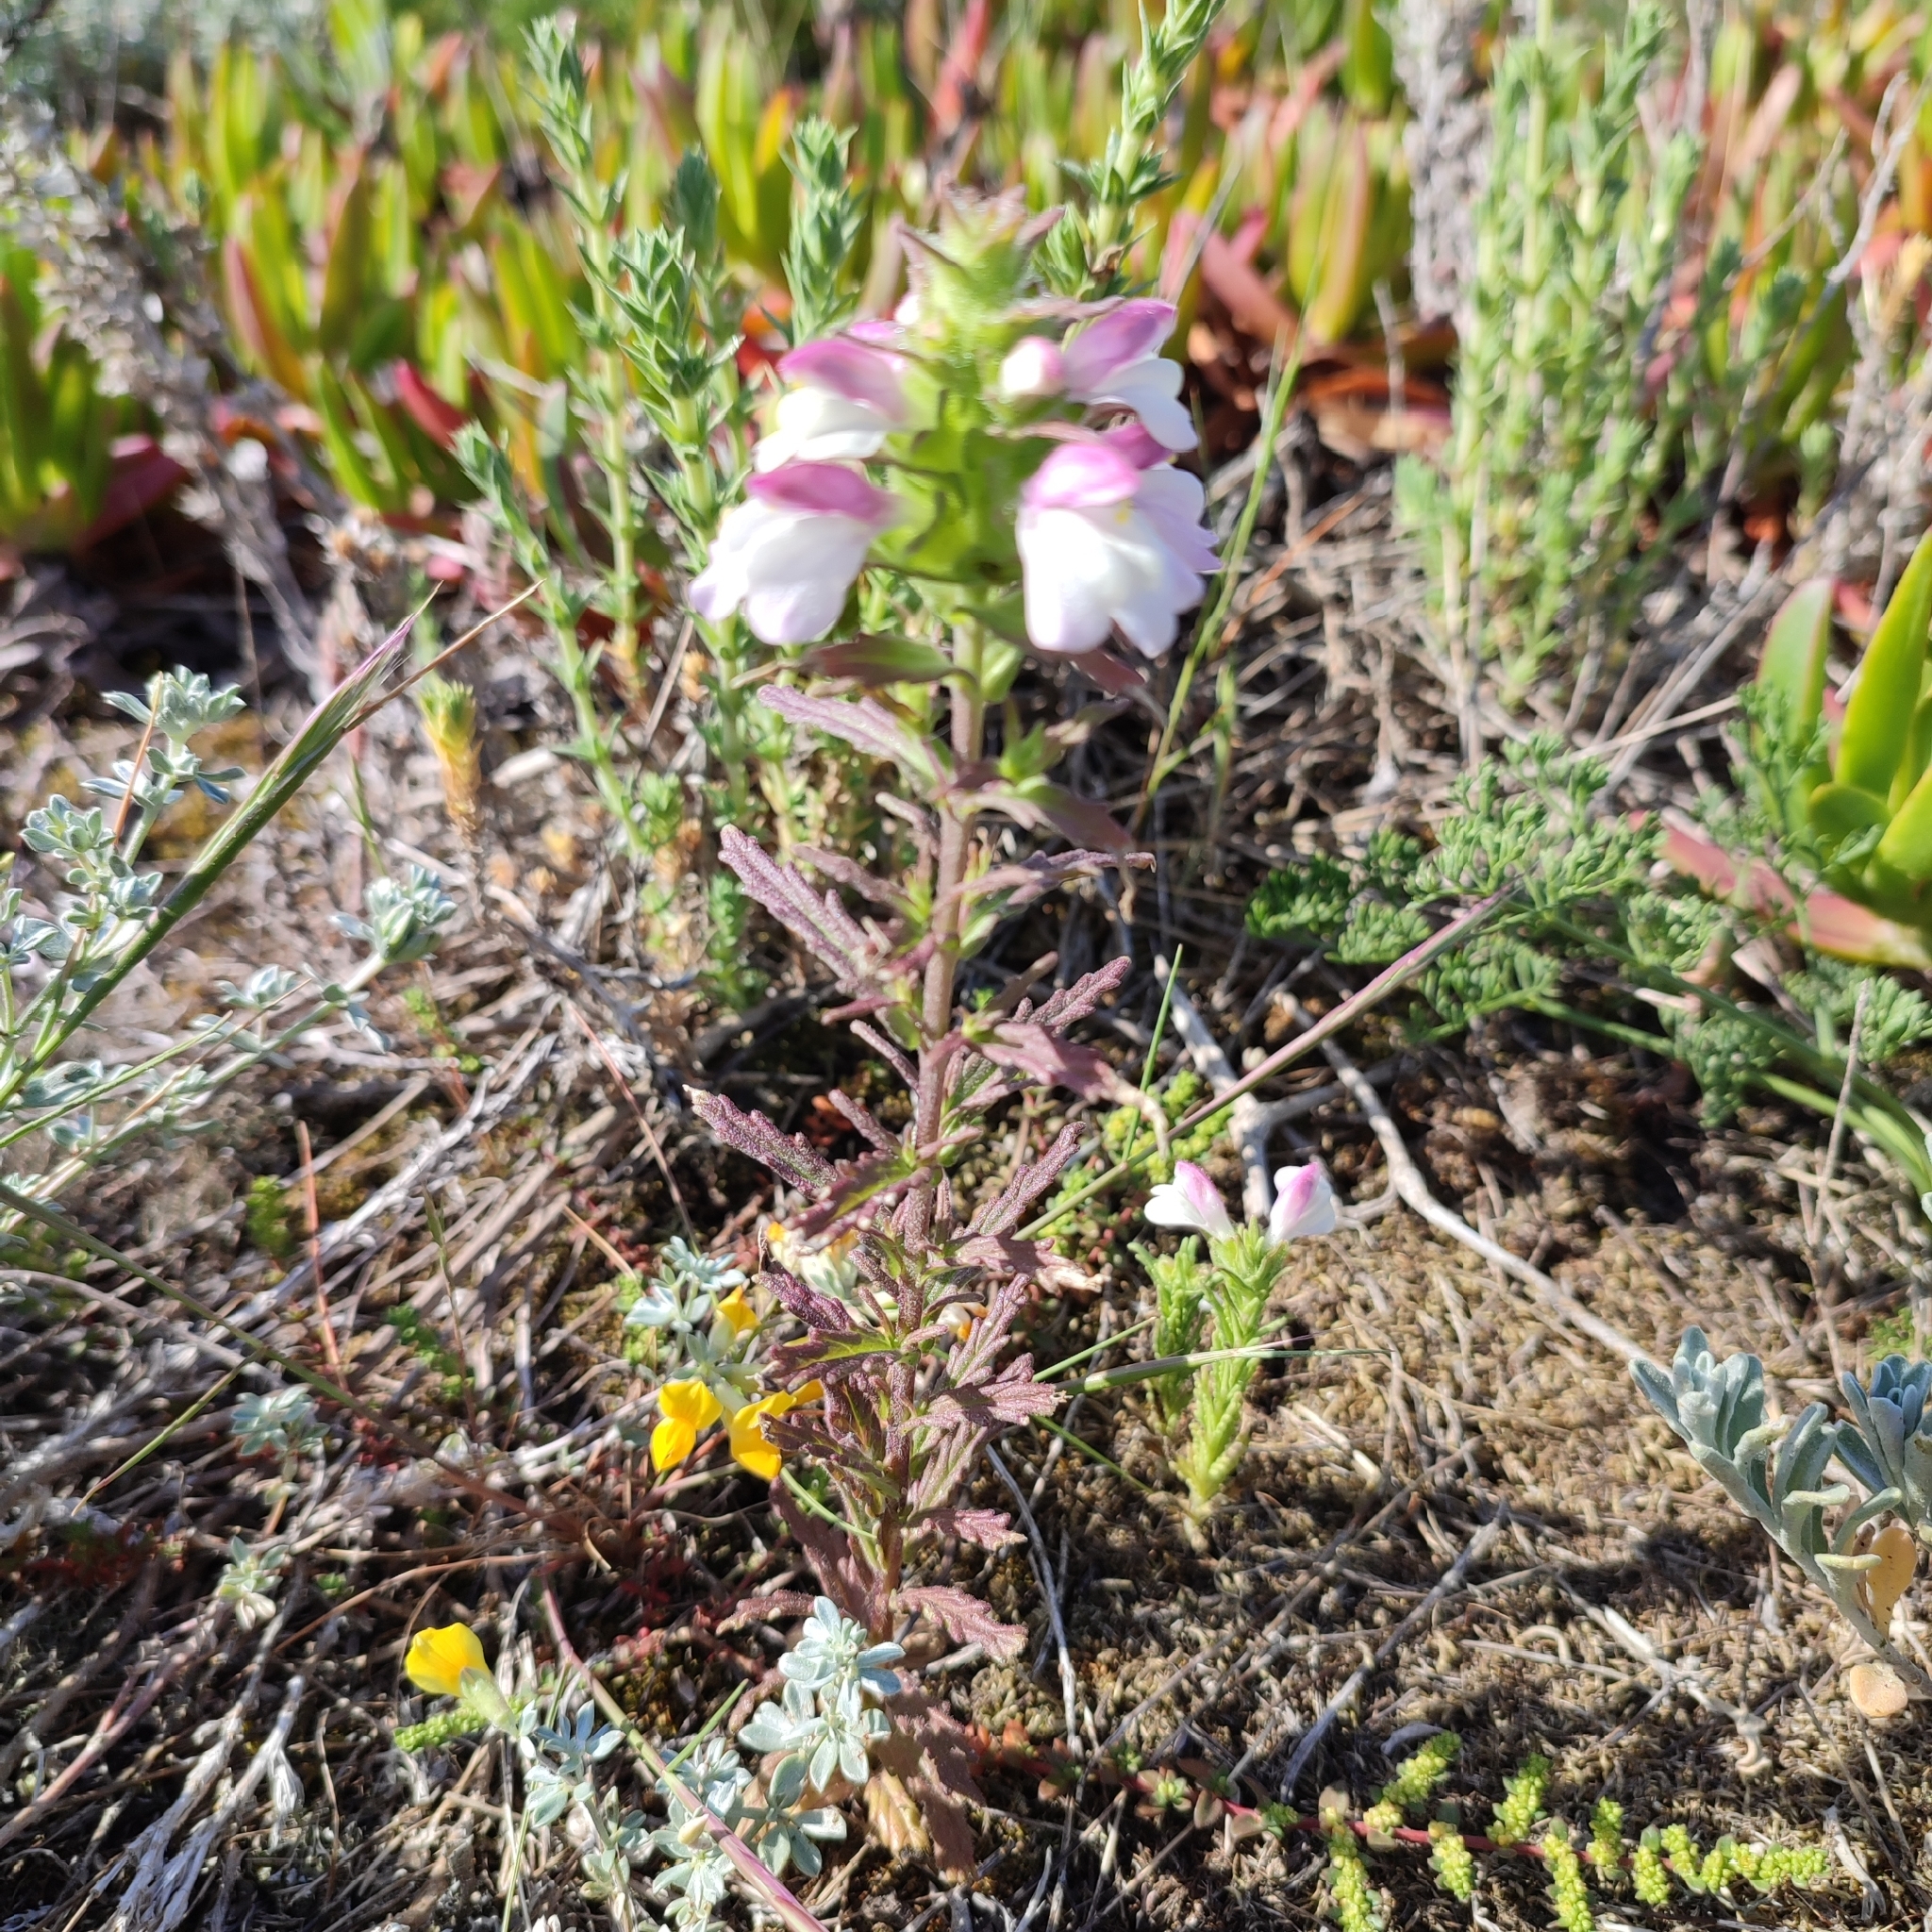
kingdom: Plantae
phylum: Tracheophyta
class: Magnoliopsida
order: Lamiales
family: Orobanchaceae
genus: Bellardia
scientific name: Bellardia trixago
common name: Mediterranean lineseed
